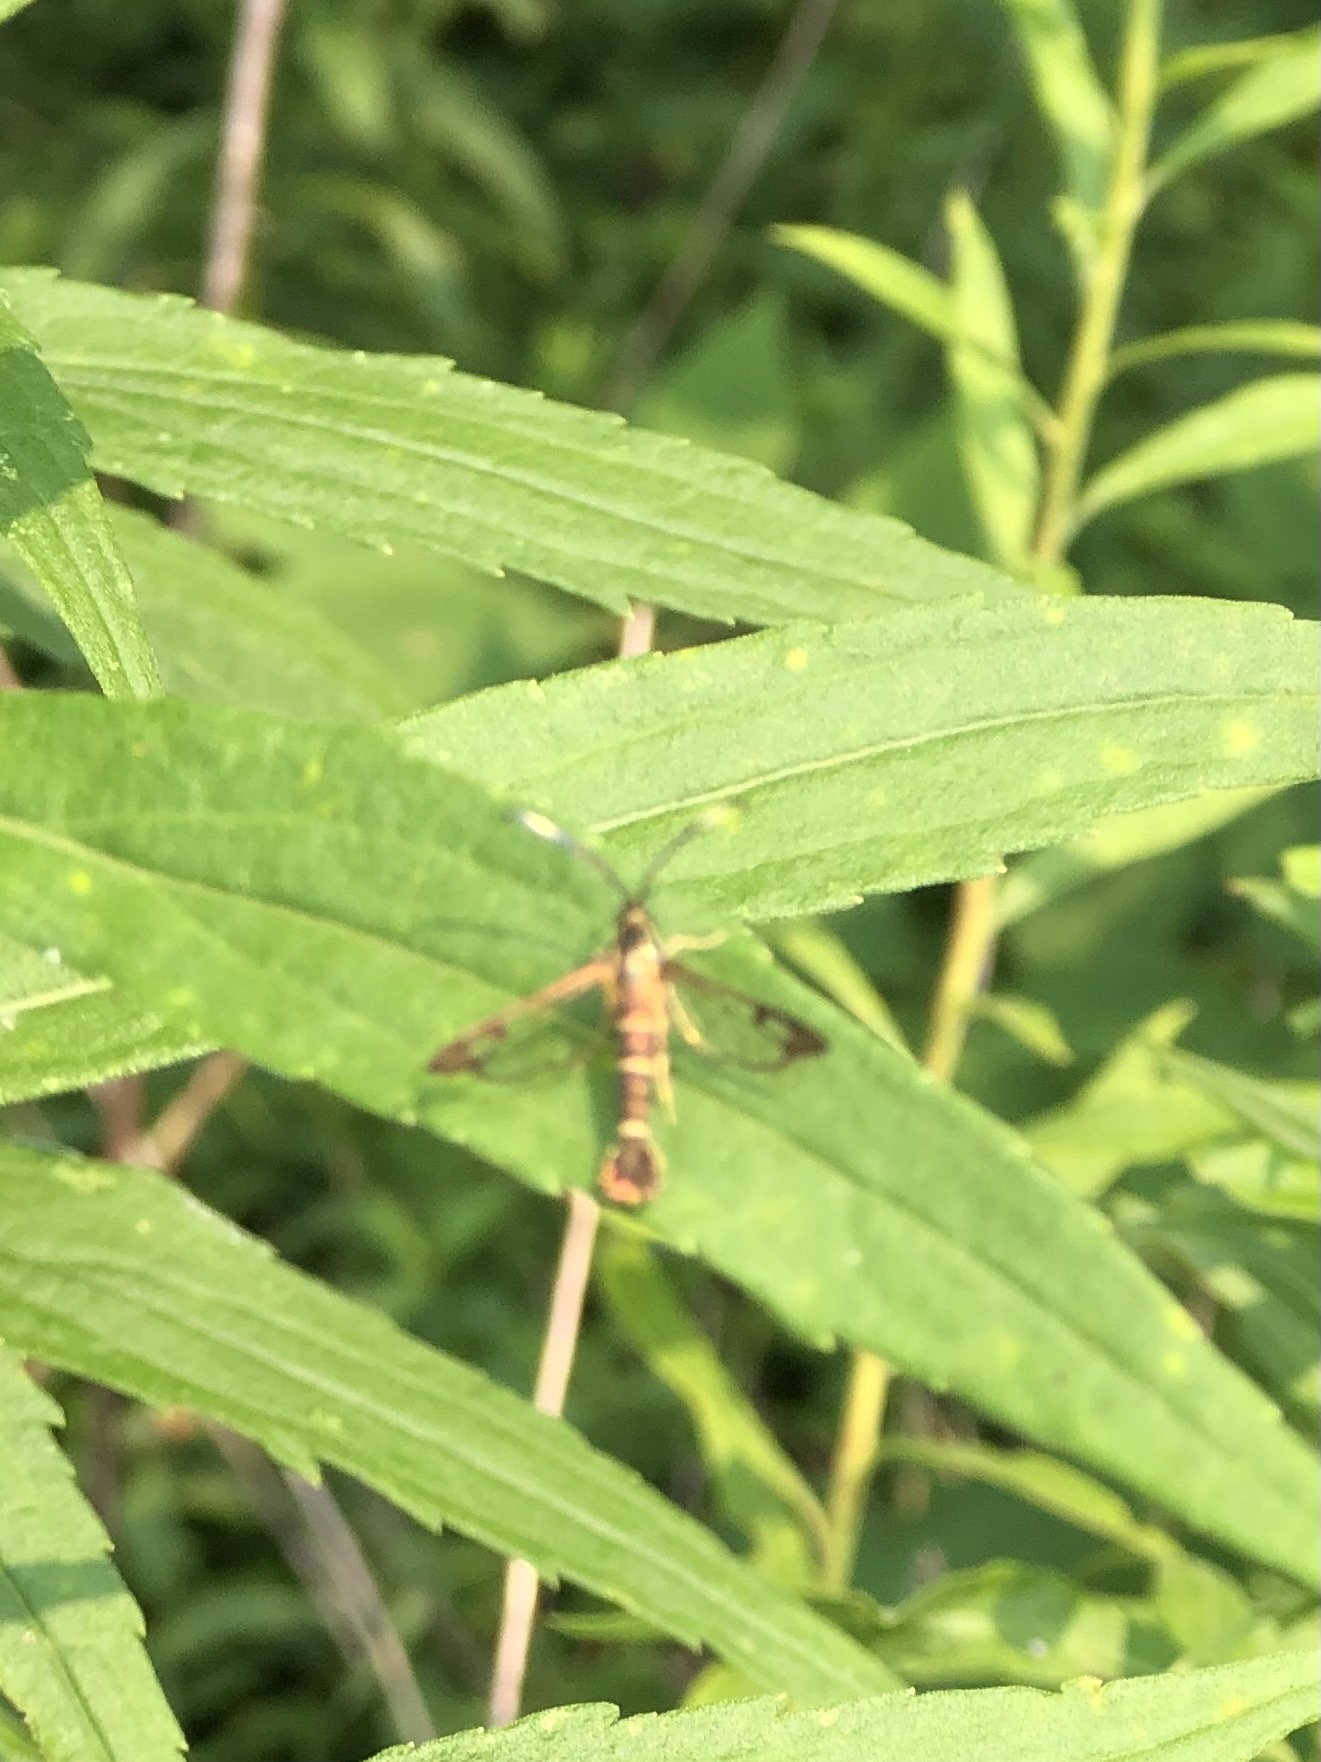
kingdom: Animalia
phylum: Arthropoda
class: Insecta
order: Lepidoptera
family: Sesiidae
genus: Carmenta
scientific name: Carmenta bassiformis
